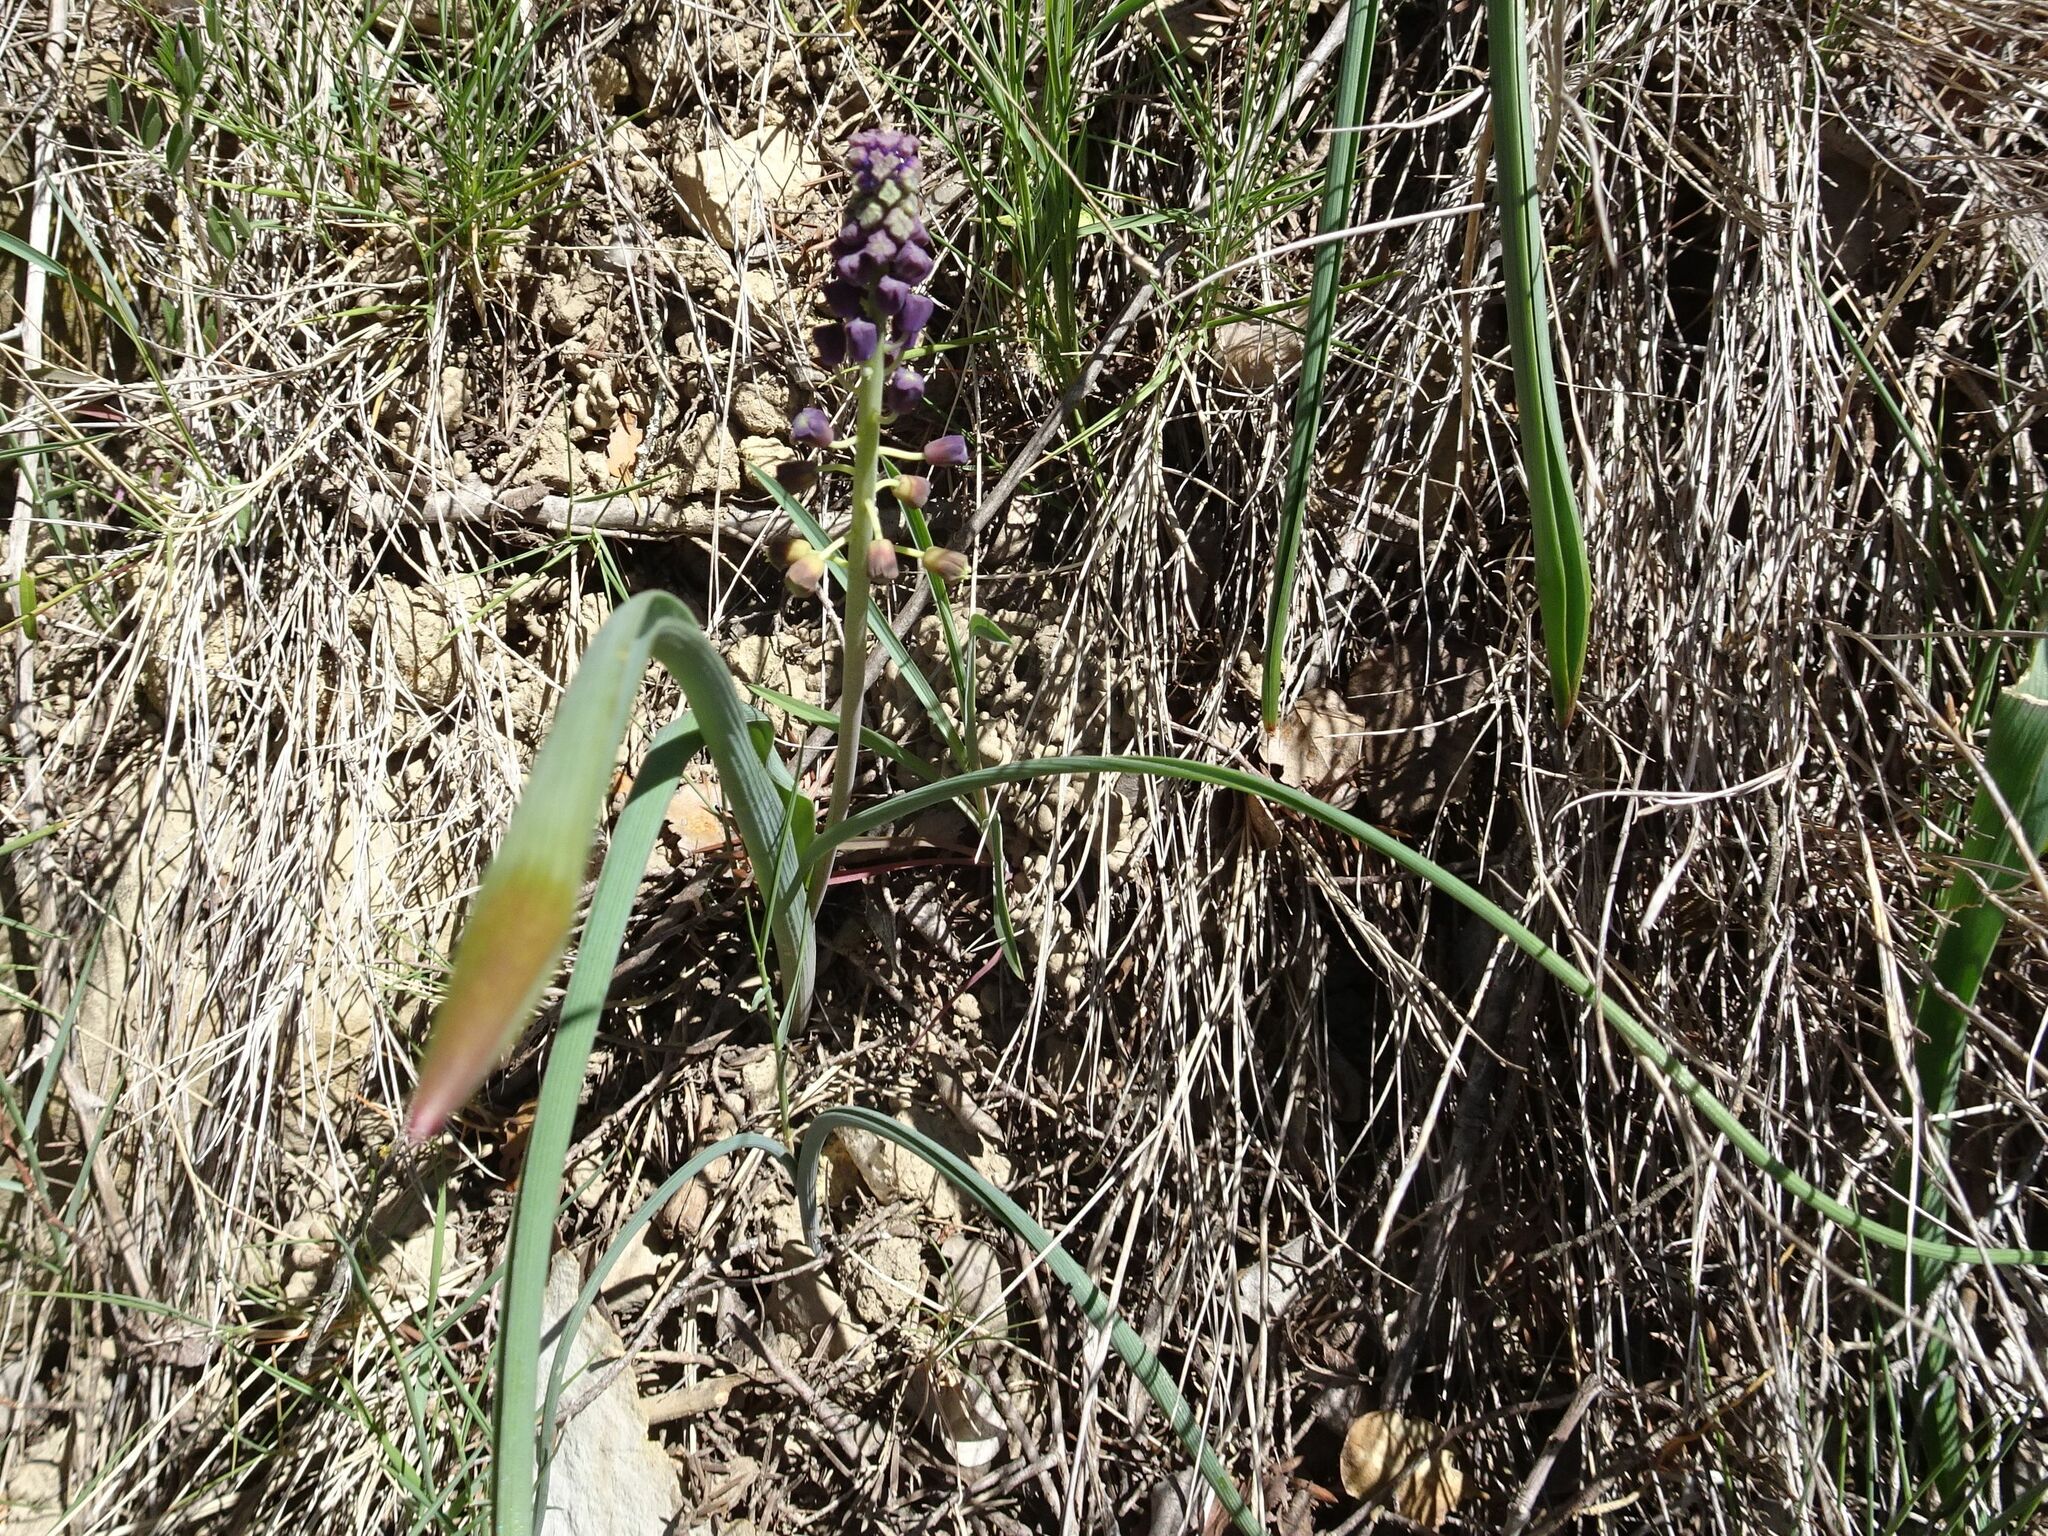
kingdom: Plantae
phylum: Tracheophyta
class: Liliopsida
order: Asparagales
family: Asparagaceae
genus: Muscari
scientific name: Muscari comosum
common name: Tassel hyacinth
